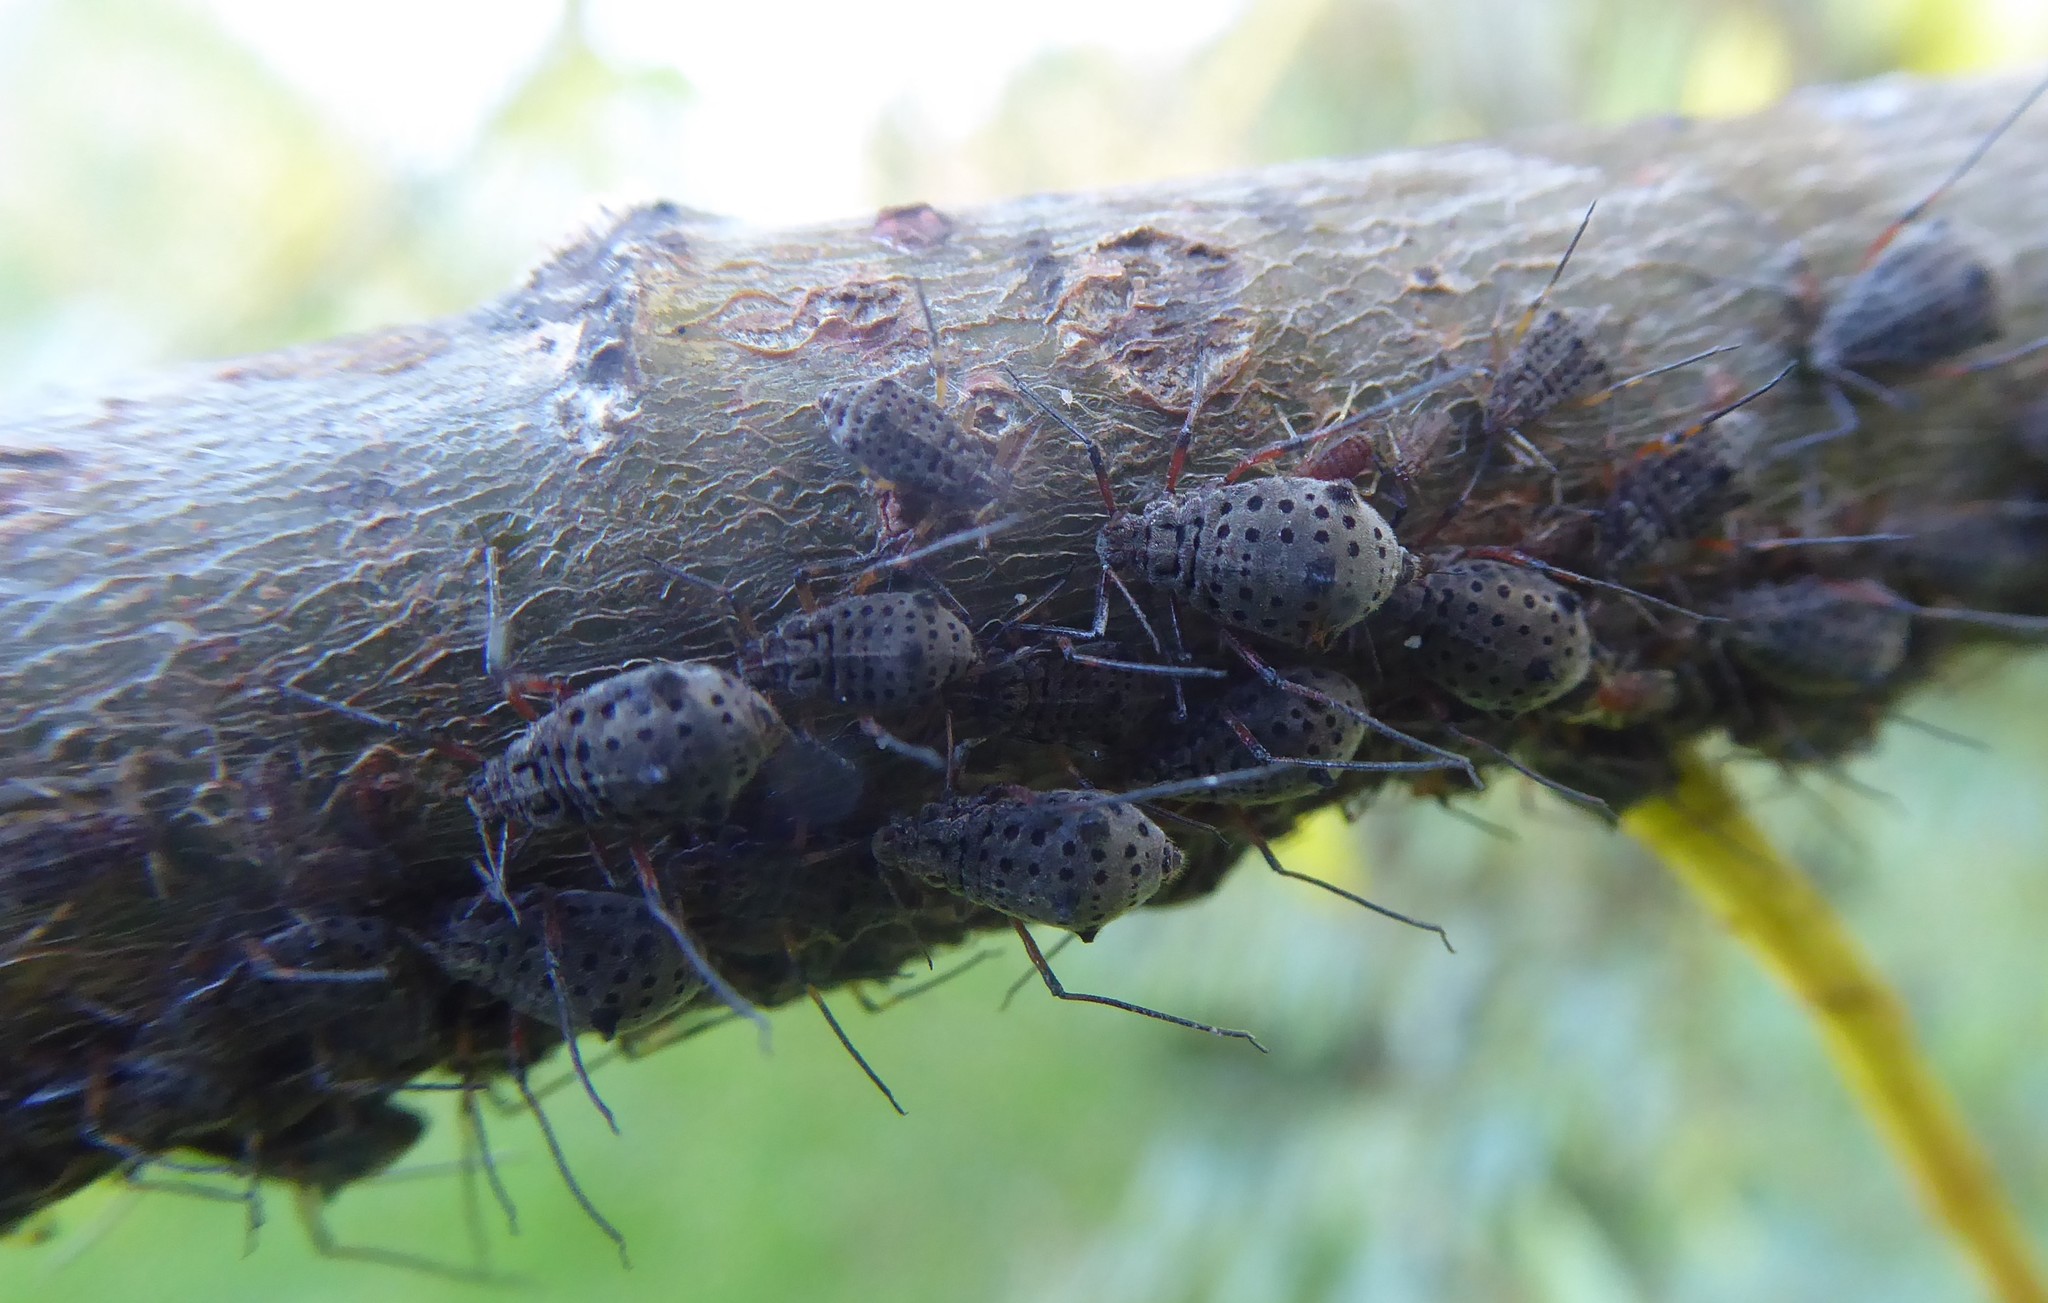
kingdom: Animalia
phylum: Arthropoda
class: Insecta
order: Hemiptera
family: Aphididae
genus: Tuberolachnus
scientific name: Tuberolachnus salignus
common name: Giant willow aphid
